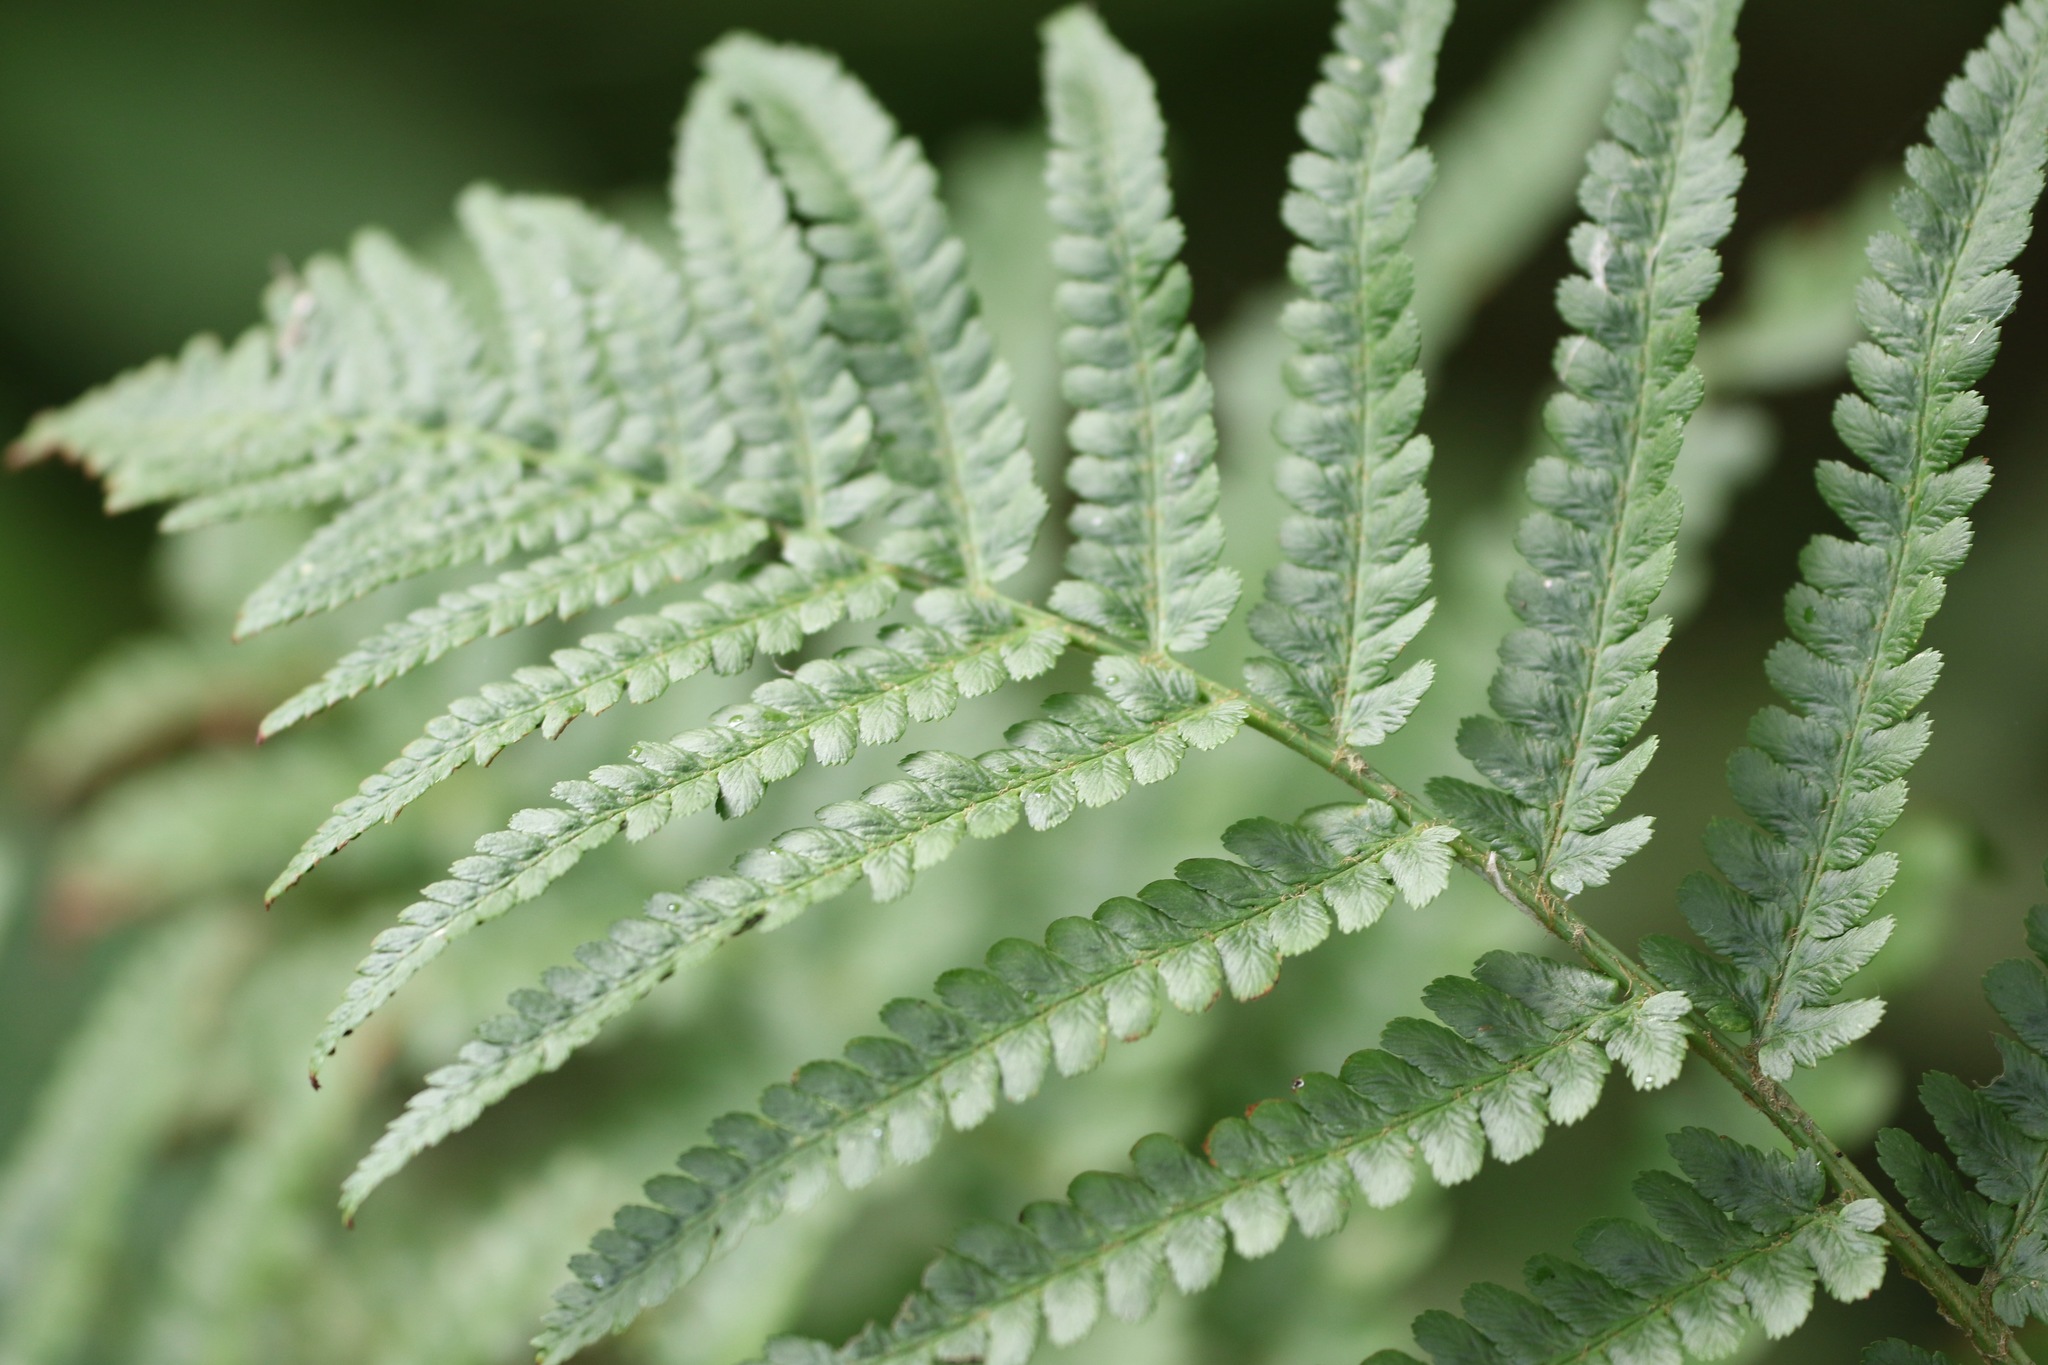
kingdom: Plantae
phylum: Tracheophyta
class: Polypodiopsida
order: Polypodiales
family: Dryopteridaceae
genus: Dryopteris
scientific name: Dryopteris filix-mas
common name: Male fern
